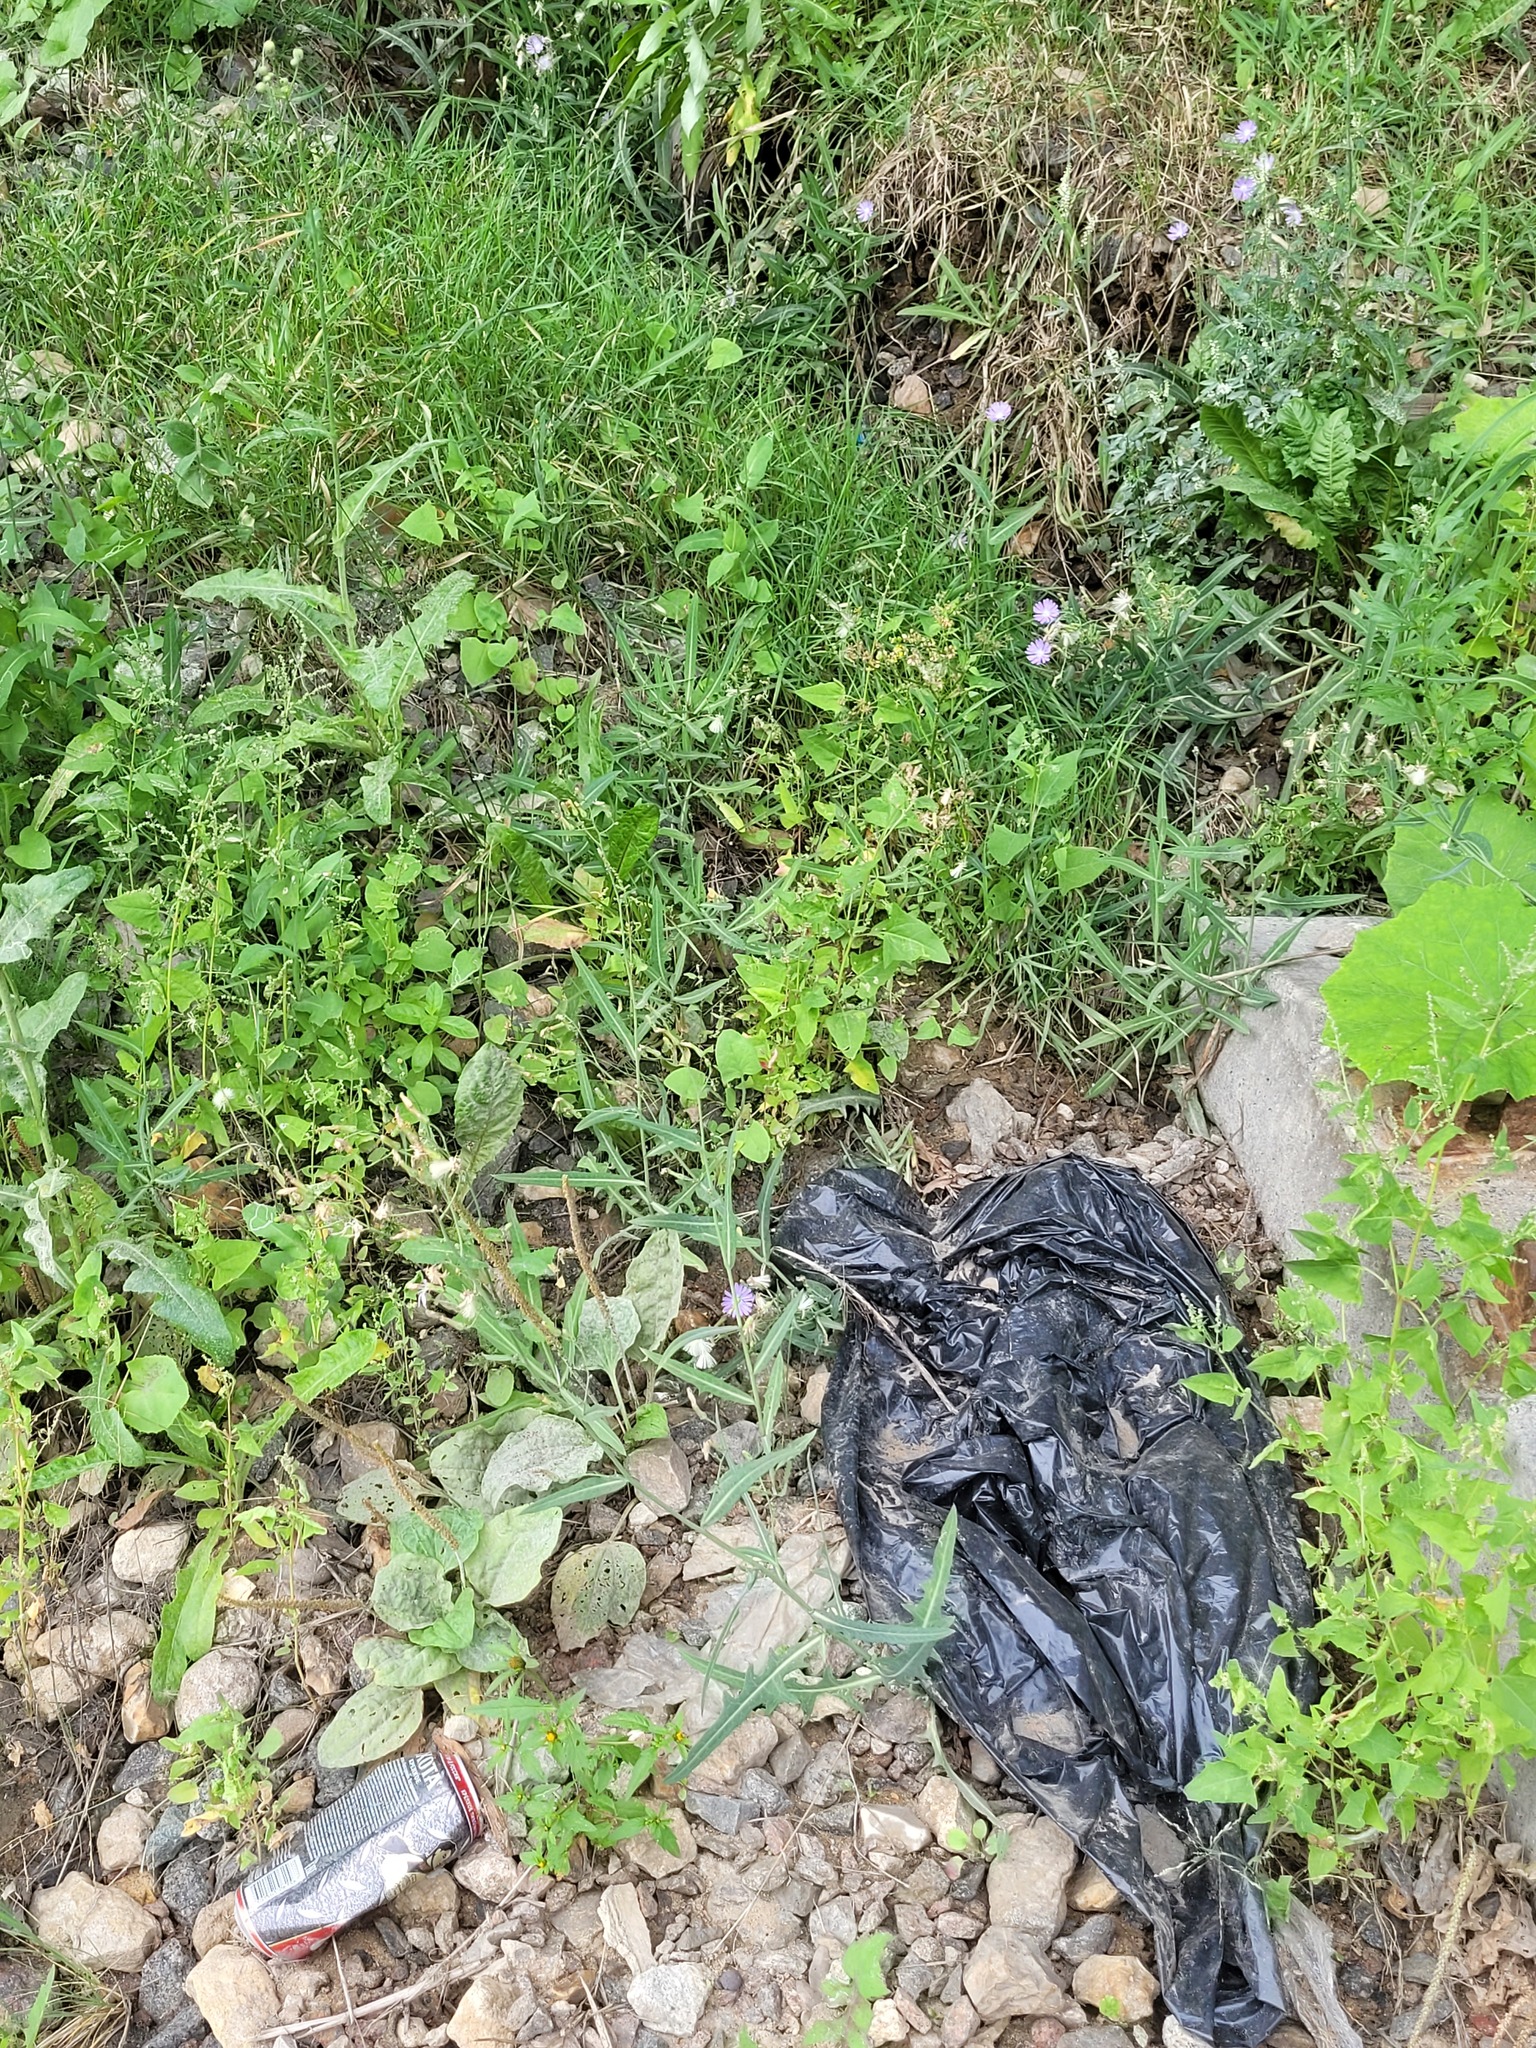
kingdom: Plantae
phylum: Tracheophyta
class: Magnoliopsida
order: Asterales
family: Asteraceae
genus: Lactuca
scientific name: Lactuca tatarica
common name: Blue lettuce
